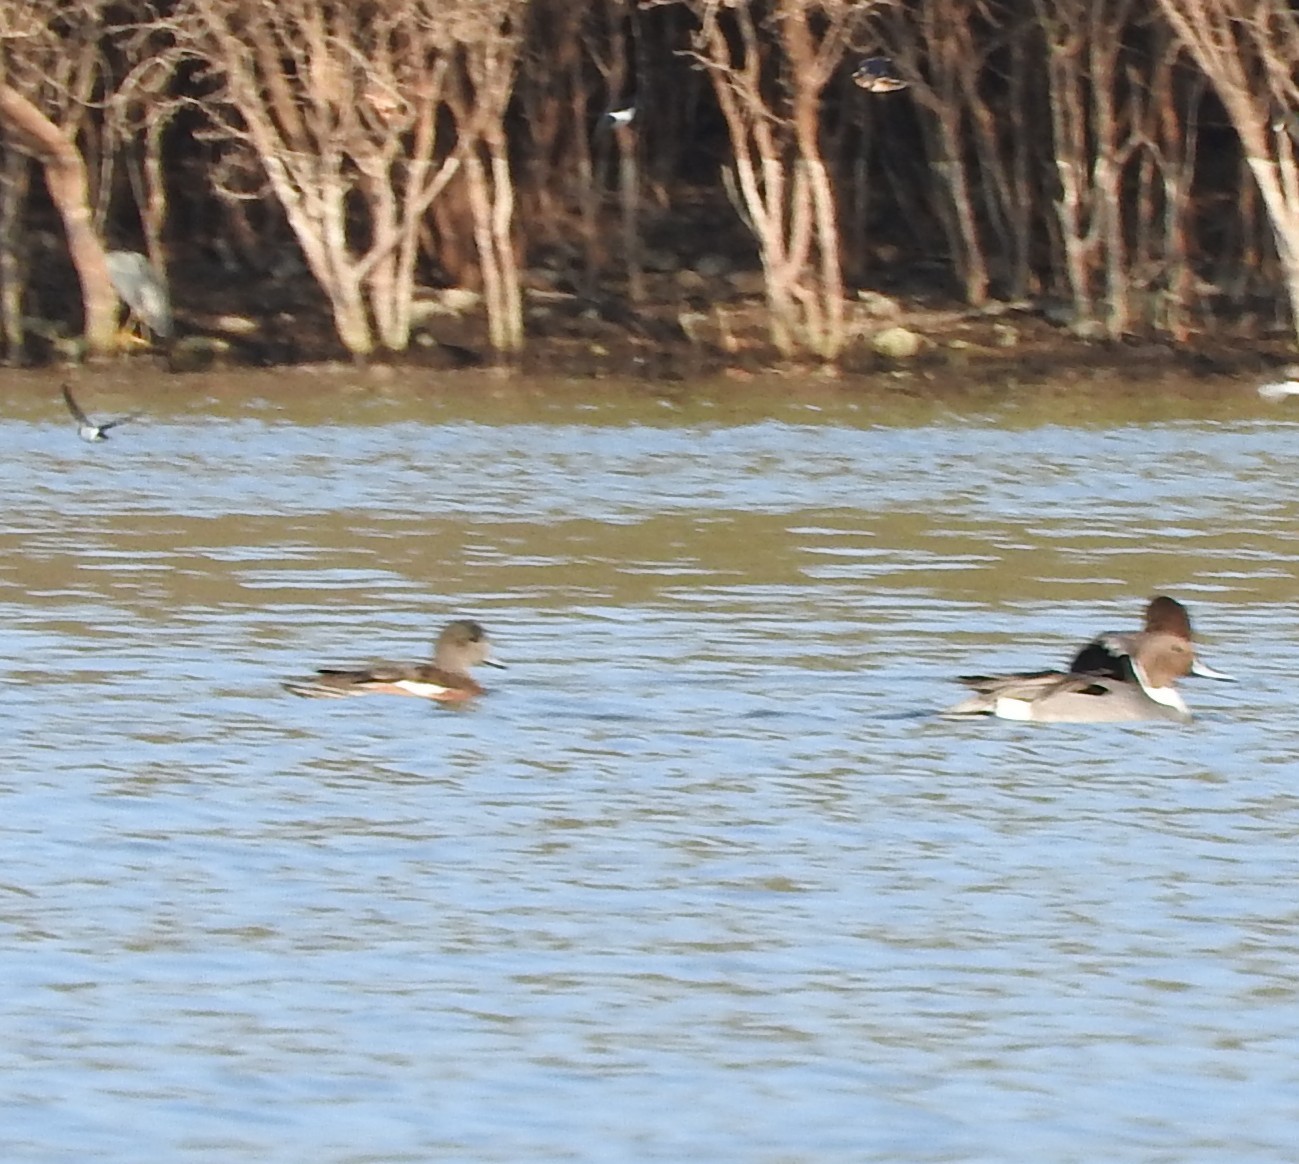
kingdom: Animalia
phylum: Chordata
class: Aves
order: Anseriformes
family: Anatidae
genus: Mareca
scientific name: Mareca americana
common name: American wigeon
